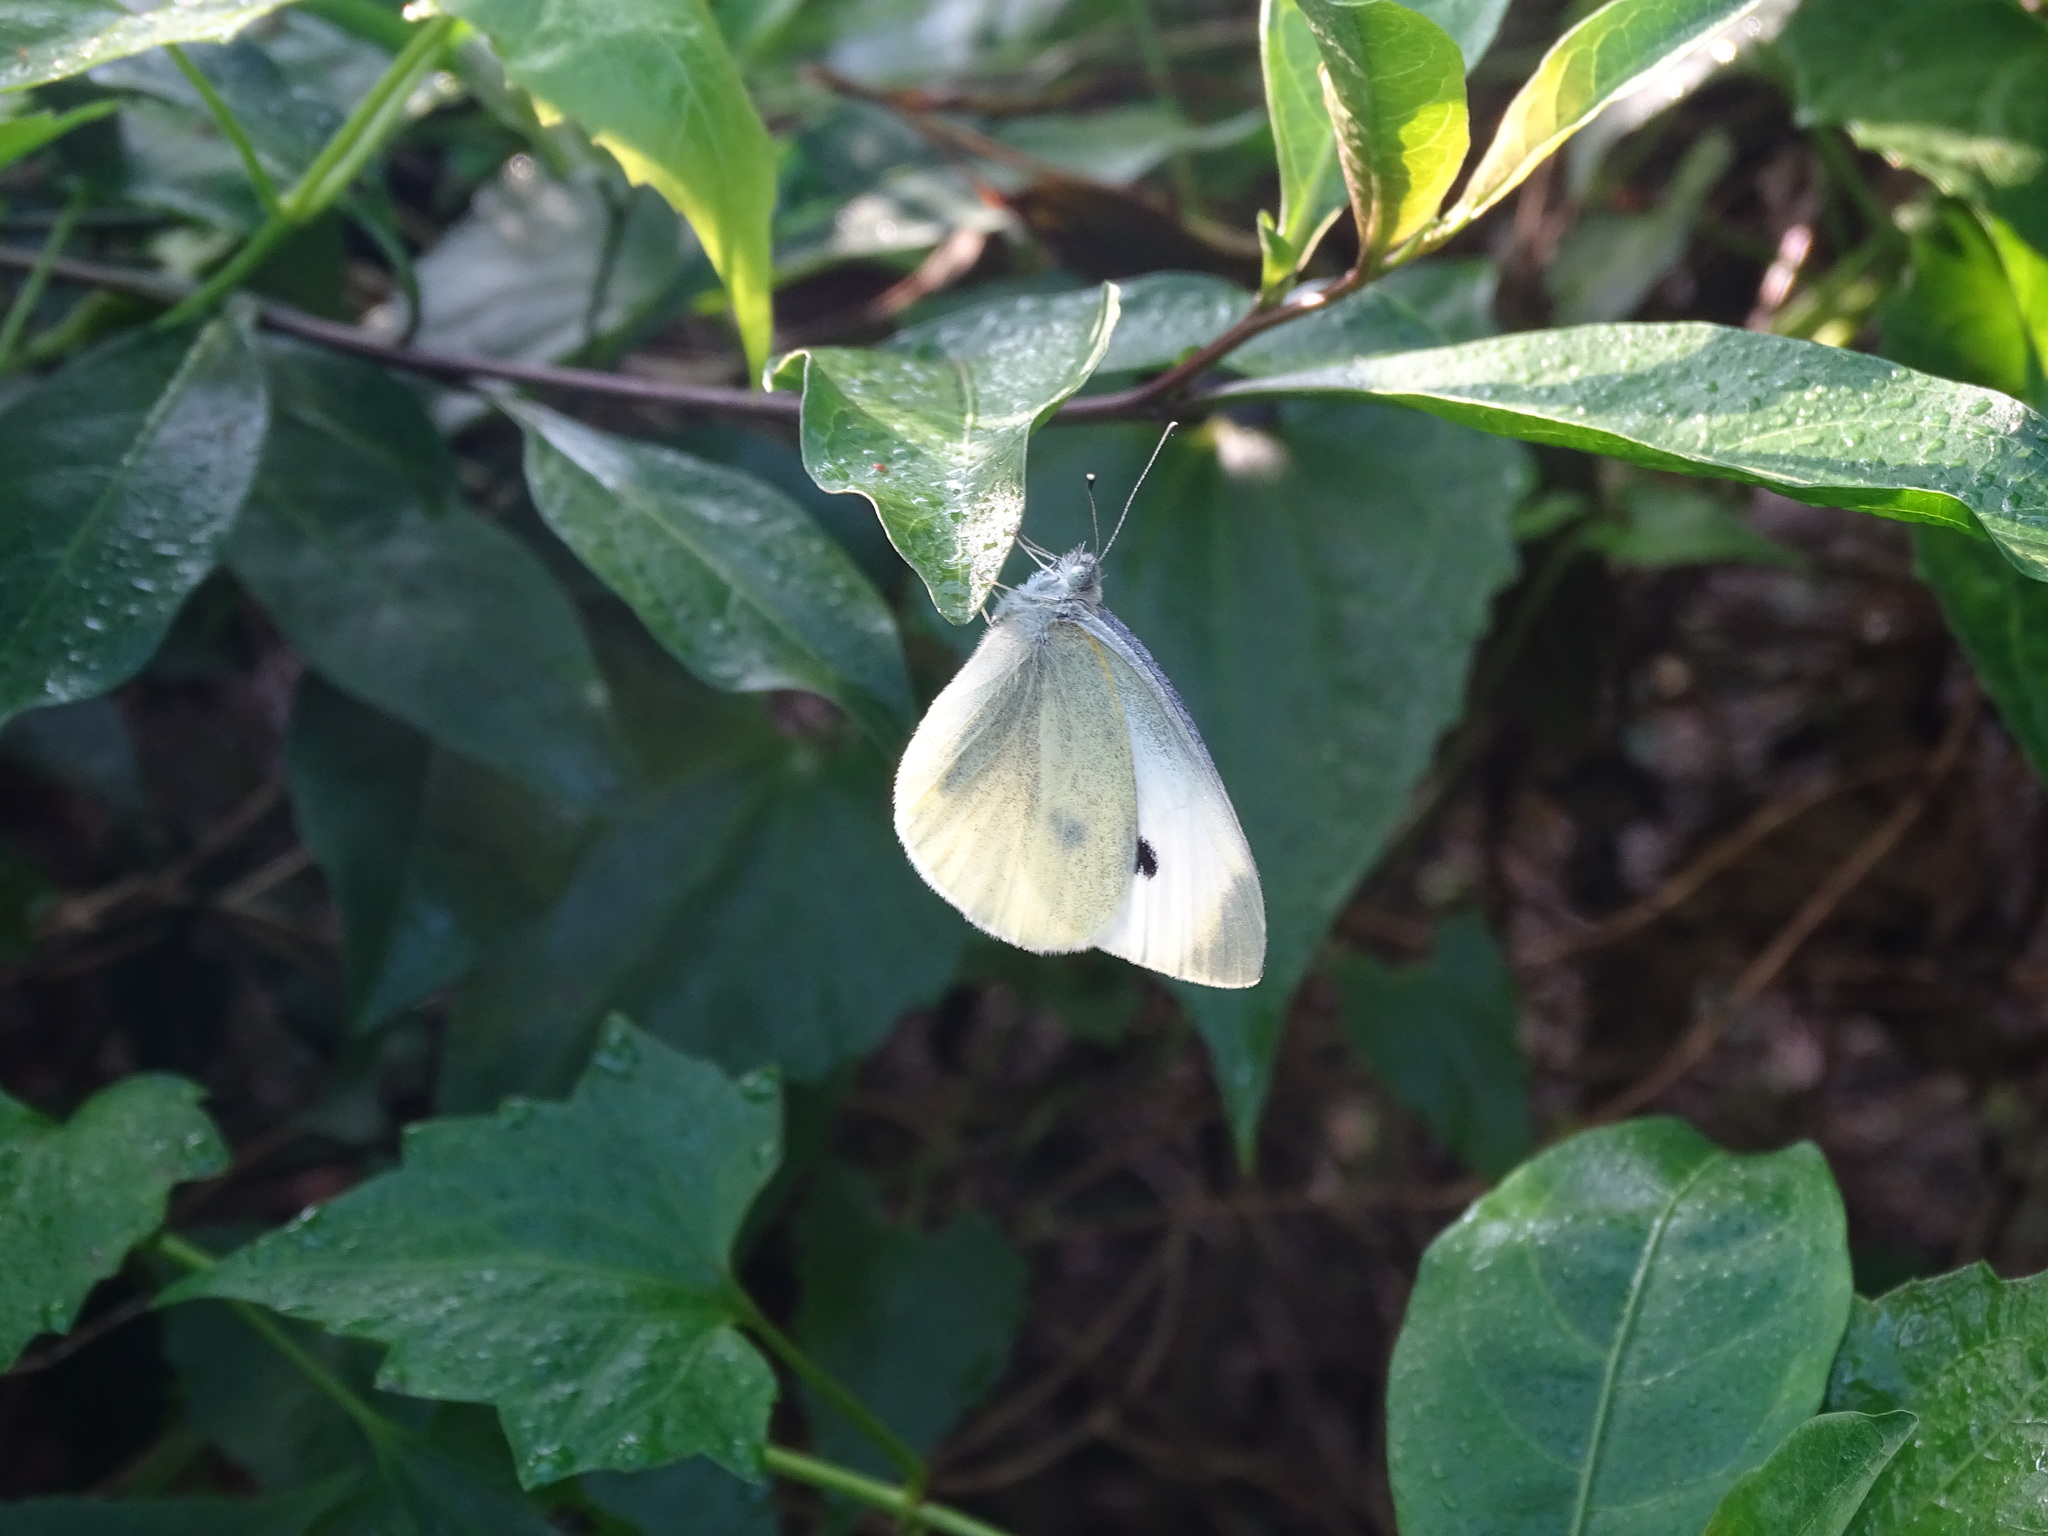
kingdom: Animalia
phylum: Arthropoda
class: Insecta
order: Lepidoptera
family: Pieridae
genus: Pieris
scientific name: Pieris rapae
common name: Small white
